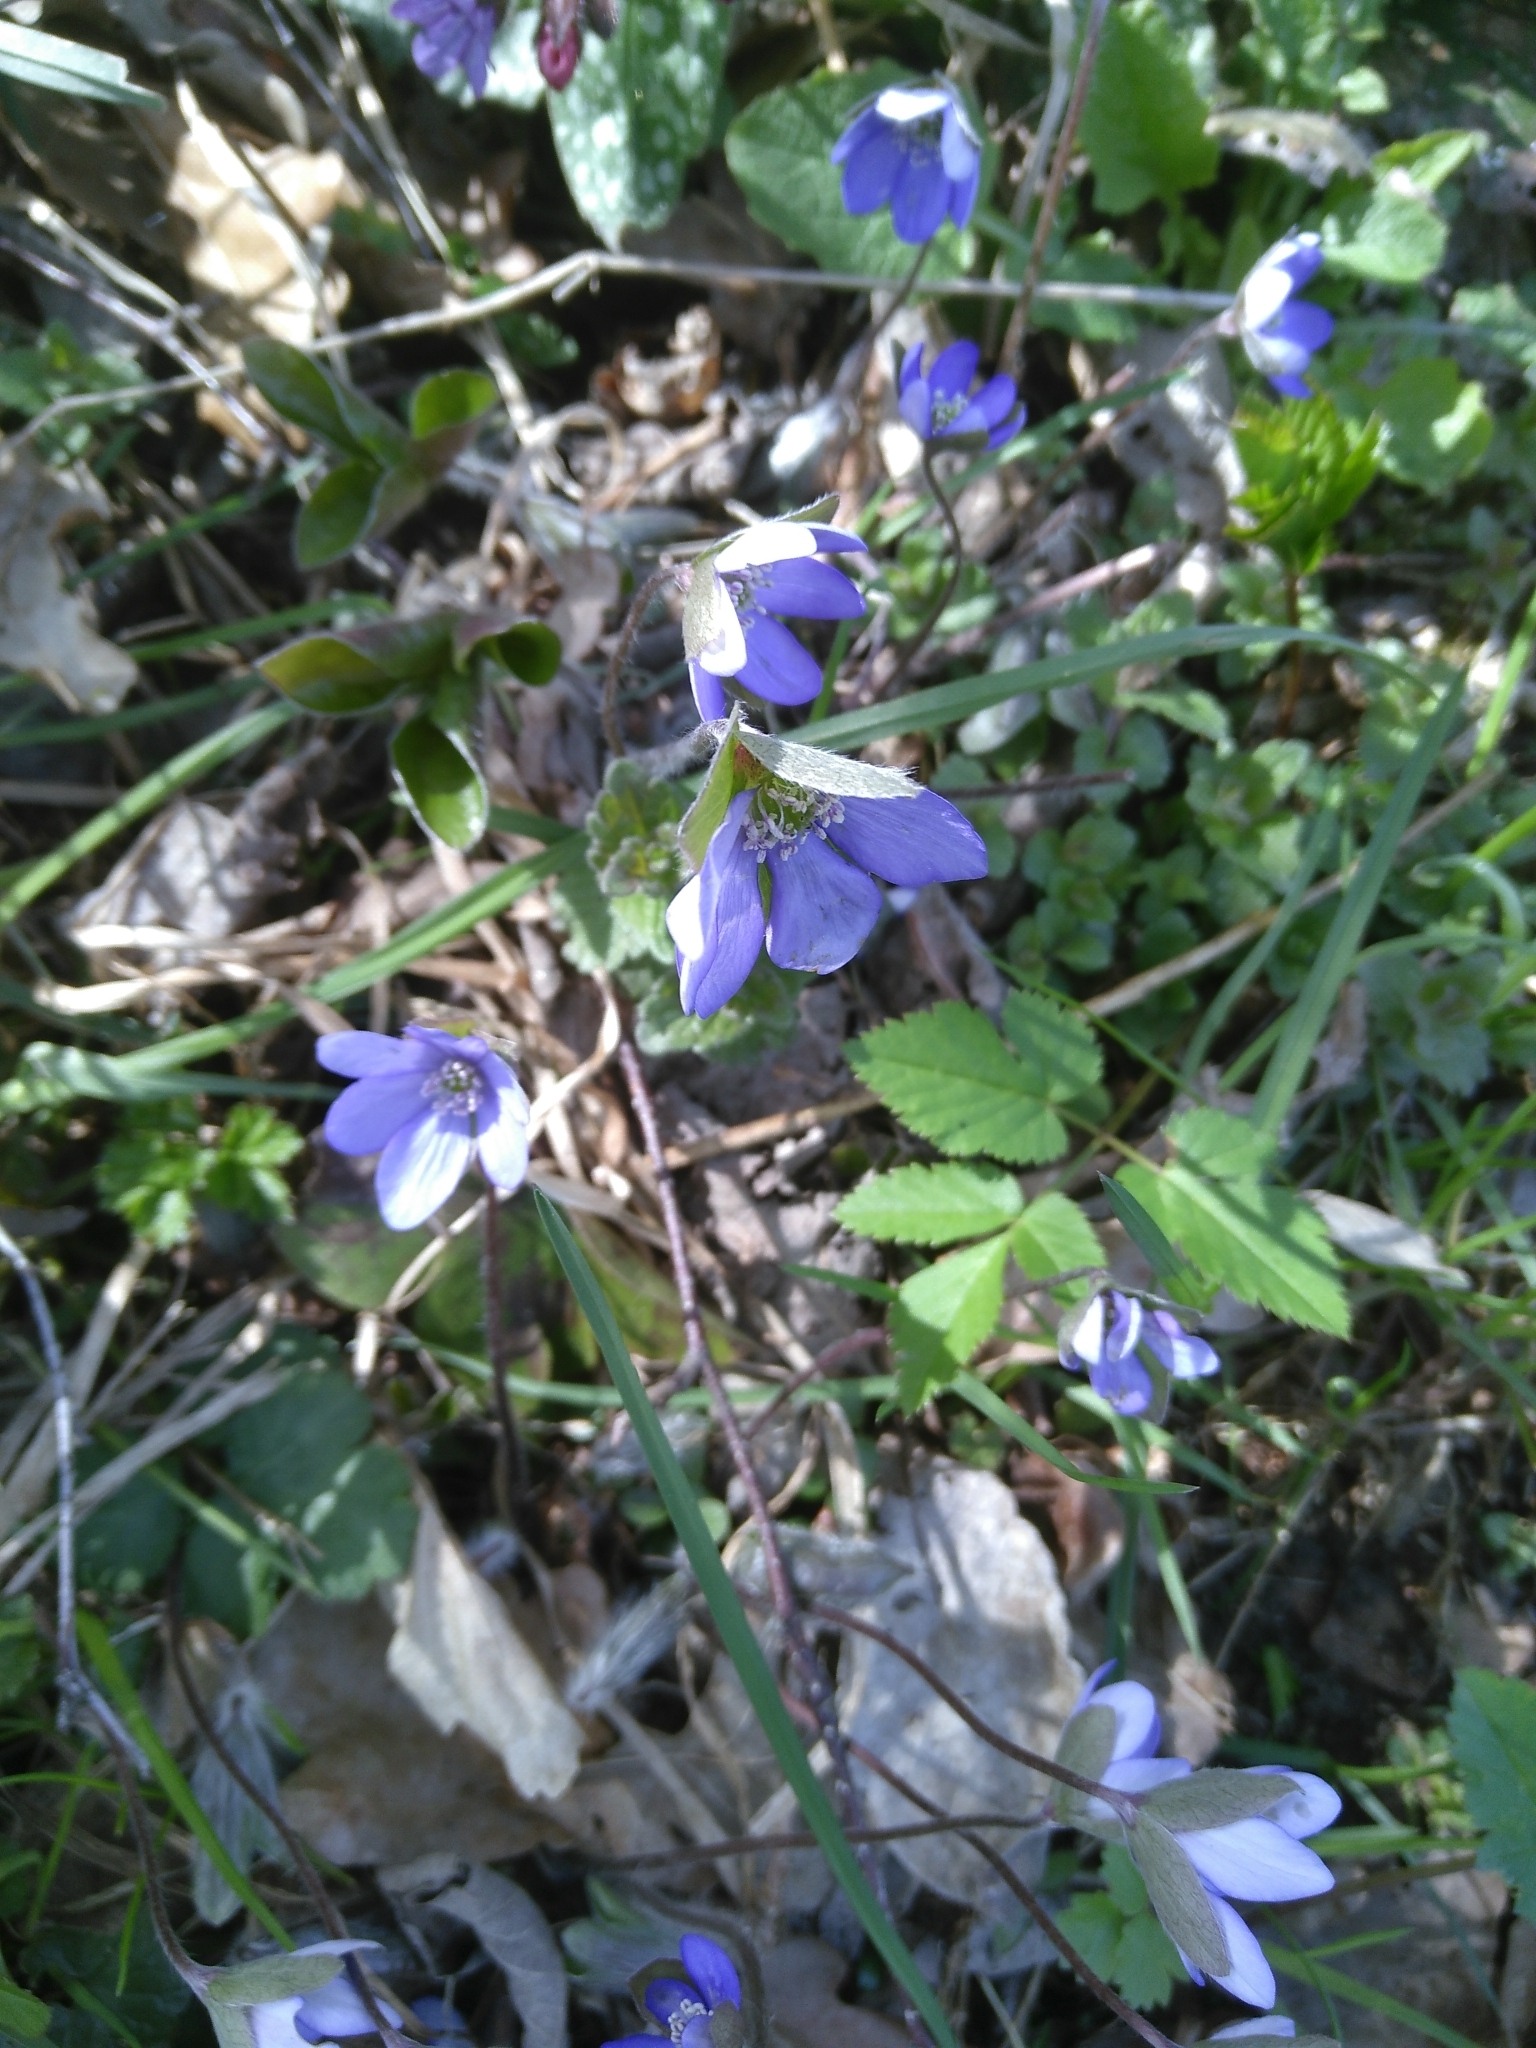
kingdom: Plantae
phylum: Tracheophyta
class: Magnoliopsida
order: Ranunculales
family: Ranunculaceae
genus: Hepatica
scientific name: Hepatica nobilis
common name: Liverleaf
